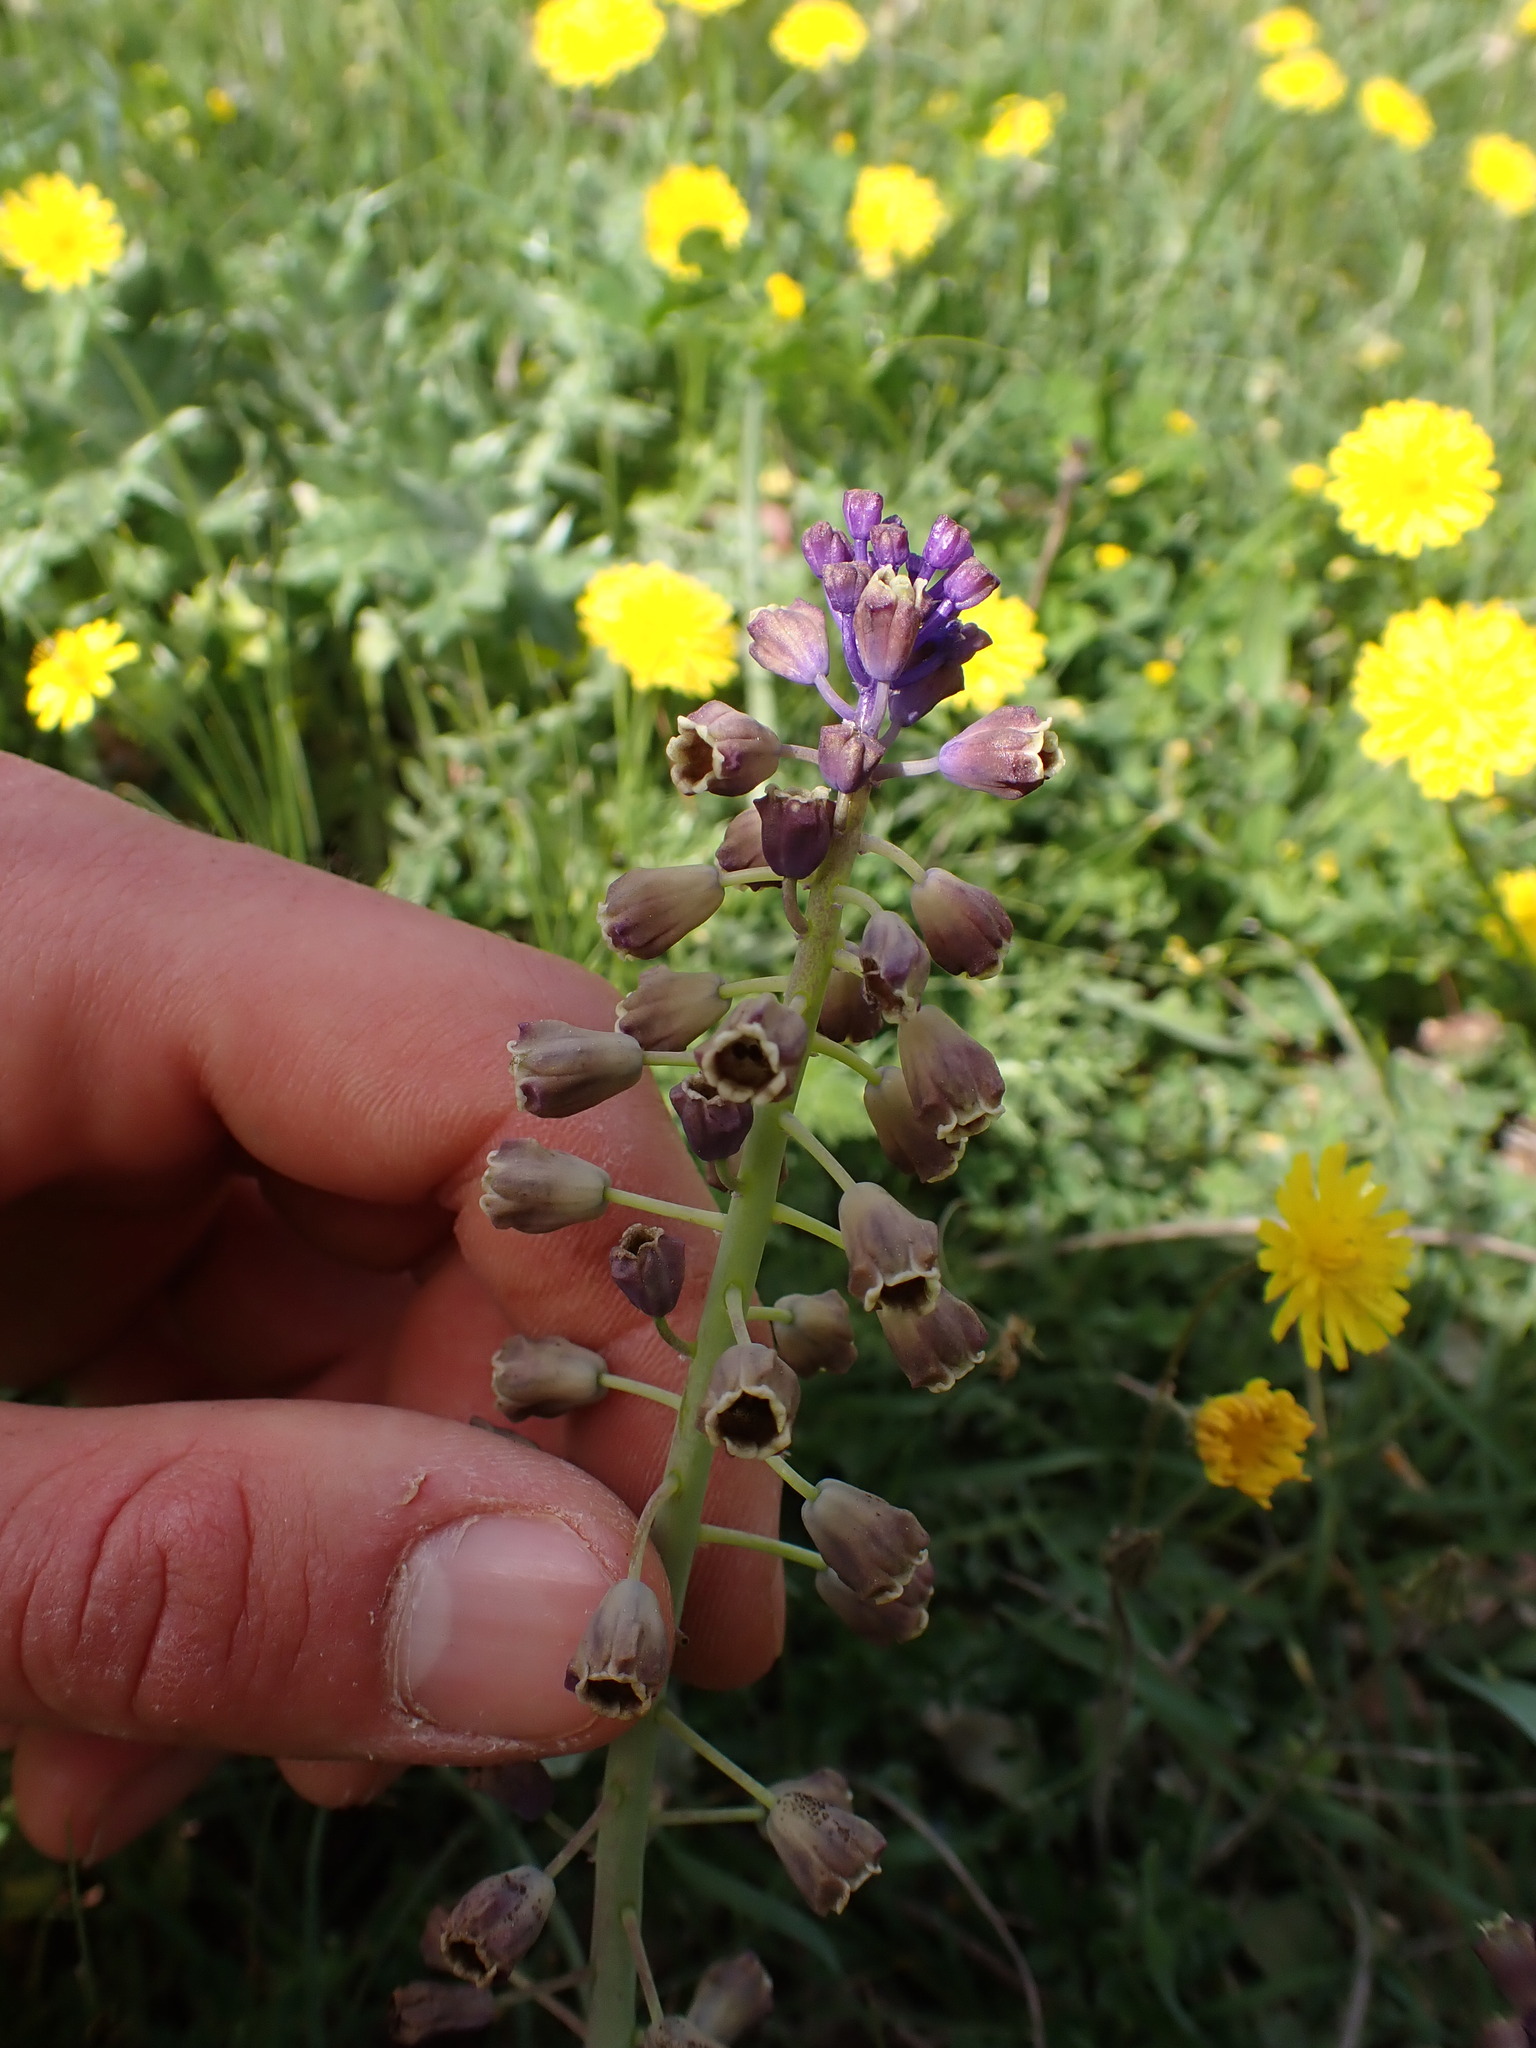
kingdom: Plantae
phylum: Tracheophyta
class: Liliopsida
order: Asparagales
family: Asparagaceae
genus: Muscari
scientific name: Muscari comosum
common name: Tassel hyacinth
